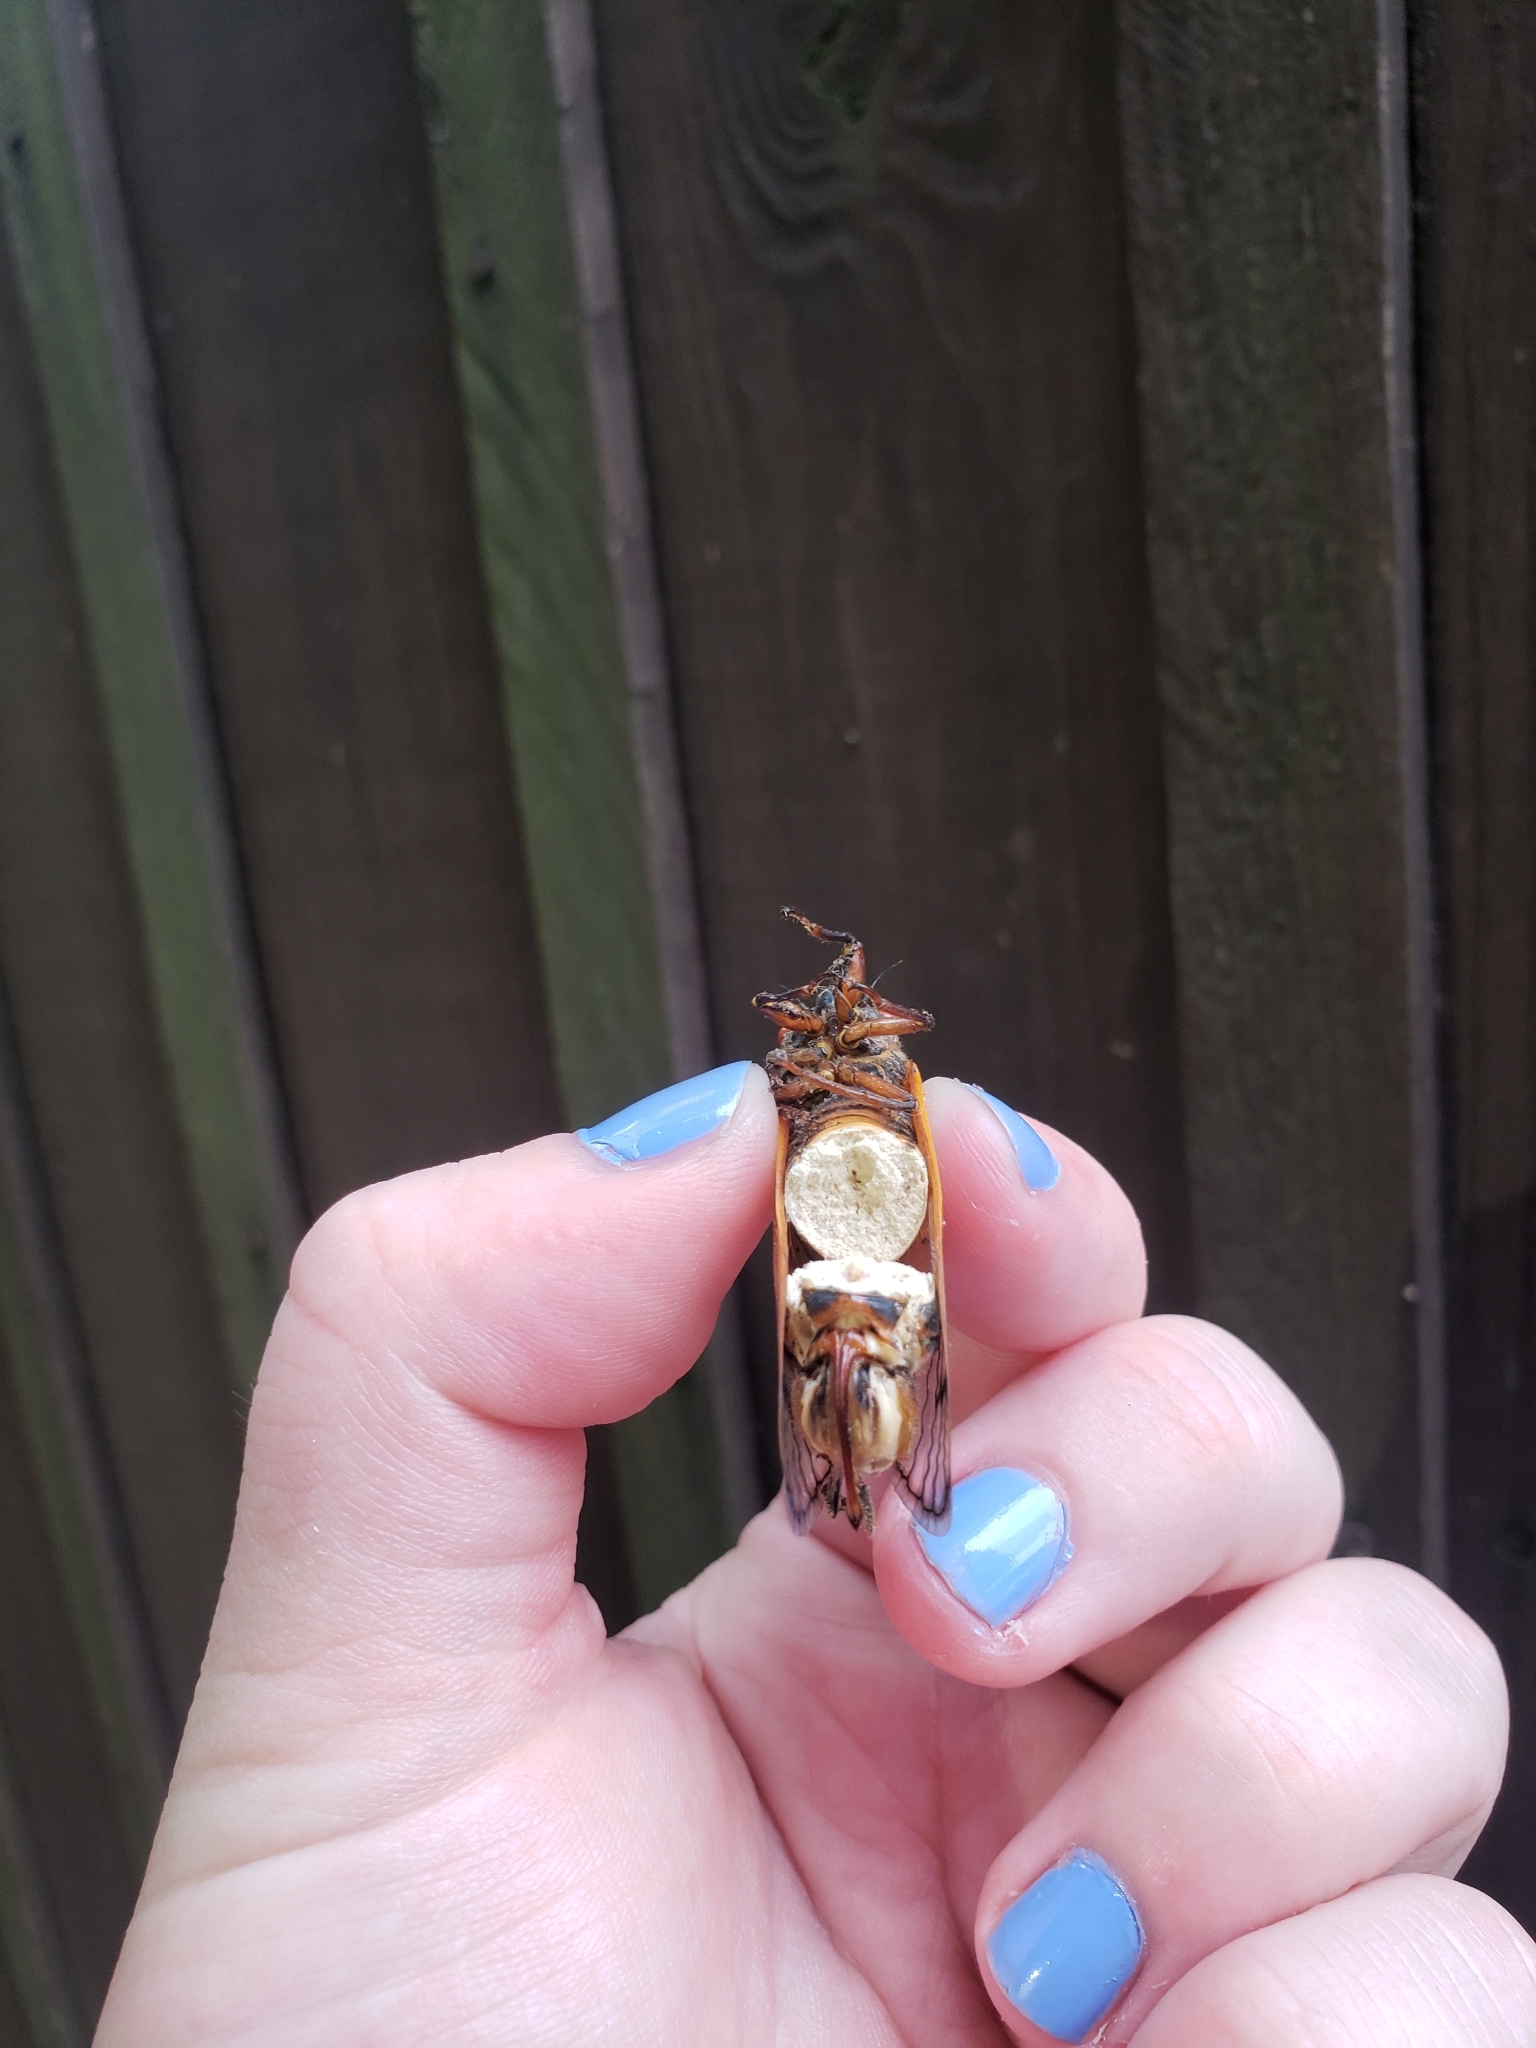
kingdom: Fungi
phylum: Entomophthoromycota
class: Entomophthoromycetes
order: Entomophthorales
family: Entomophthoraceae
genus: Massospora
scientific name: Massospora cicadina
